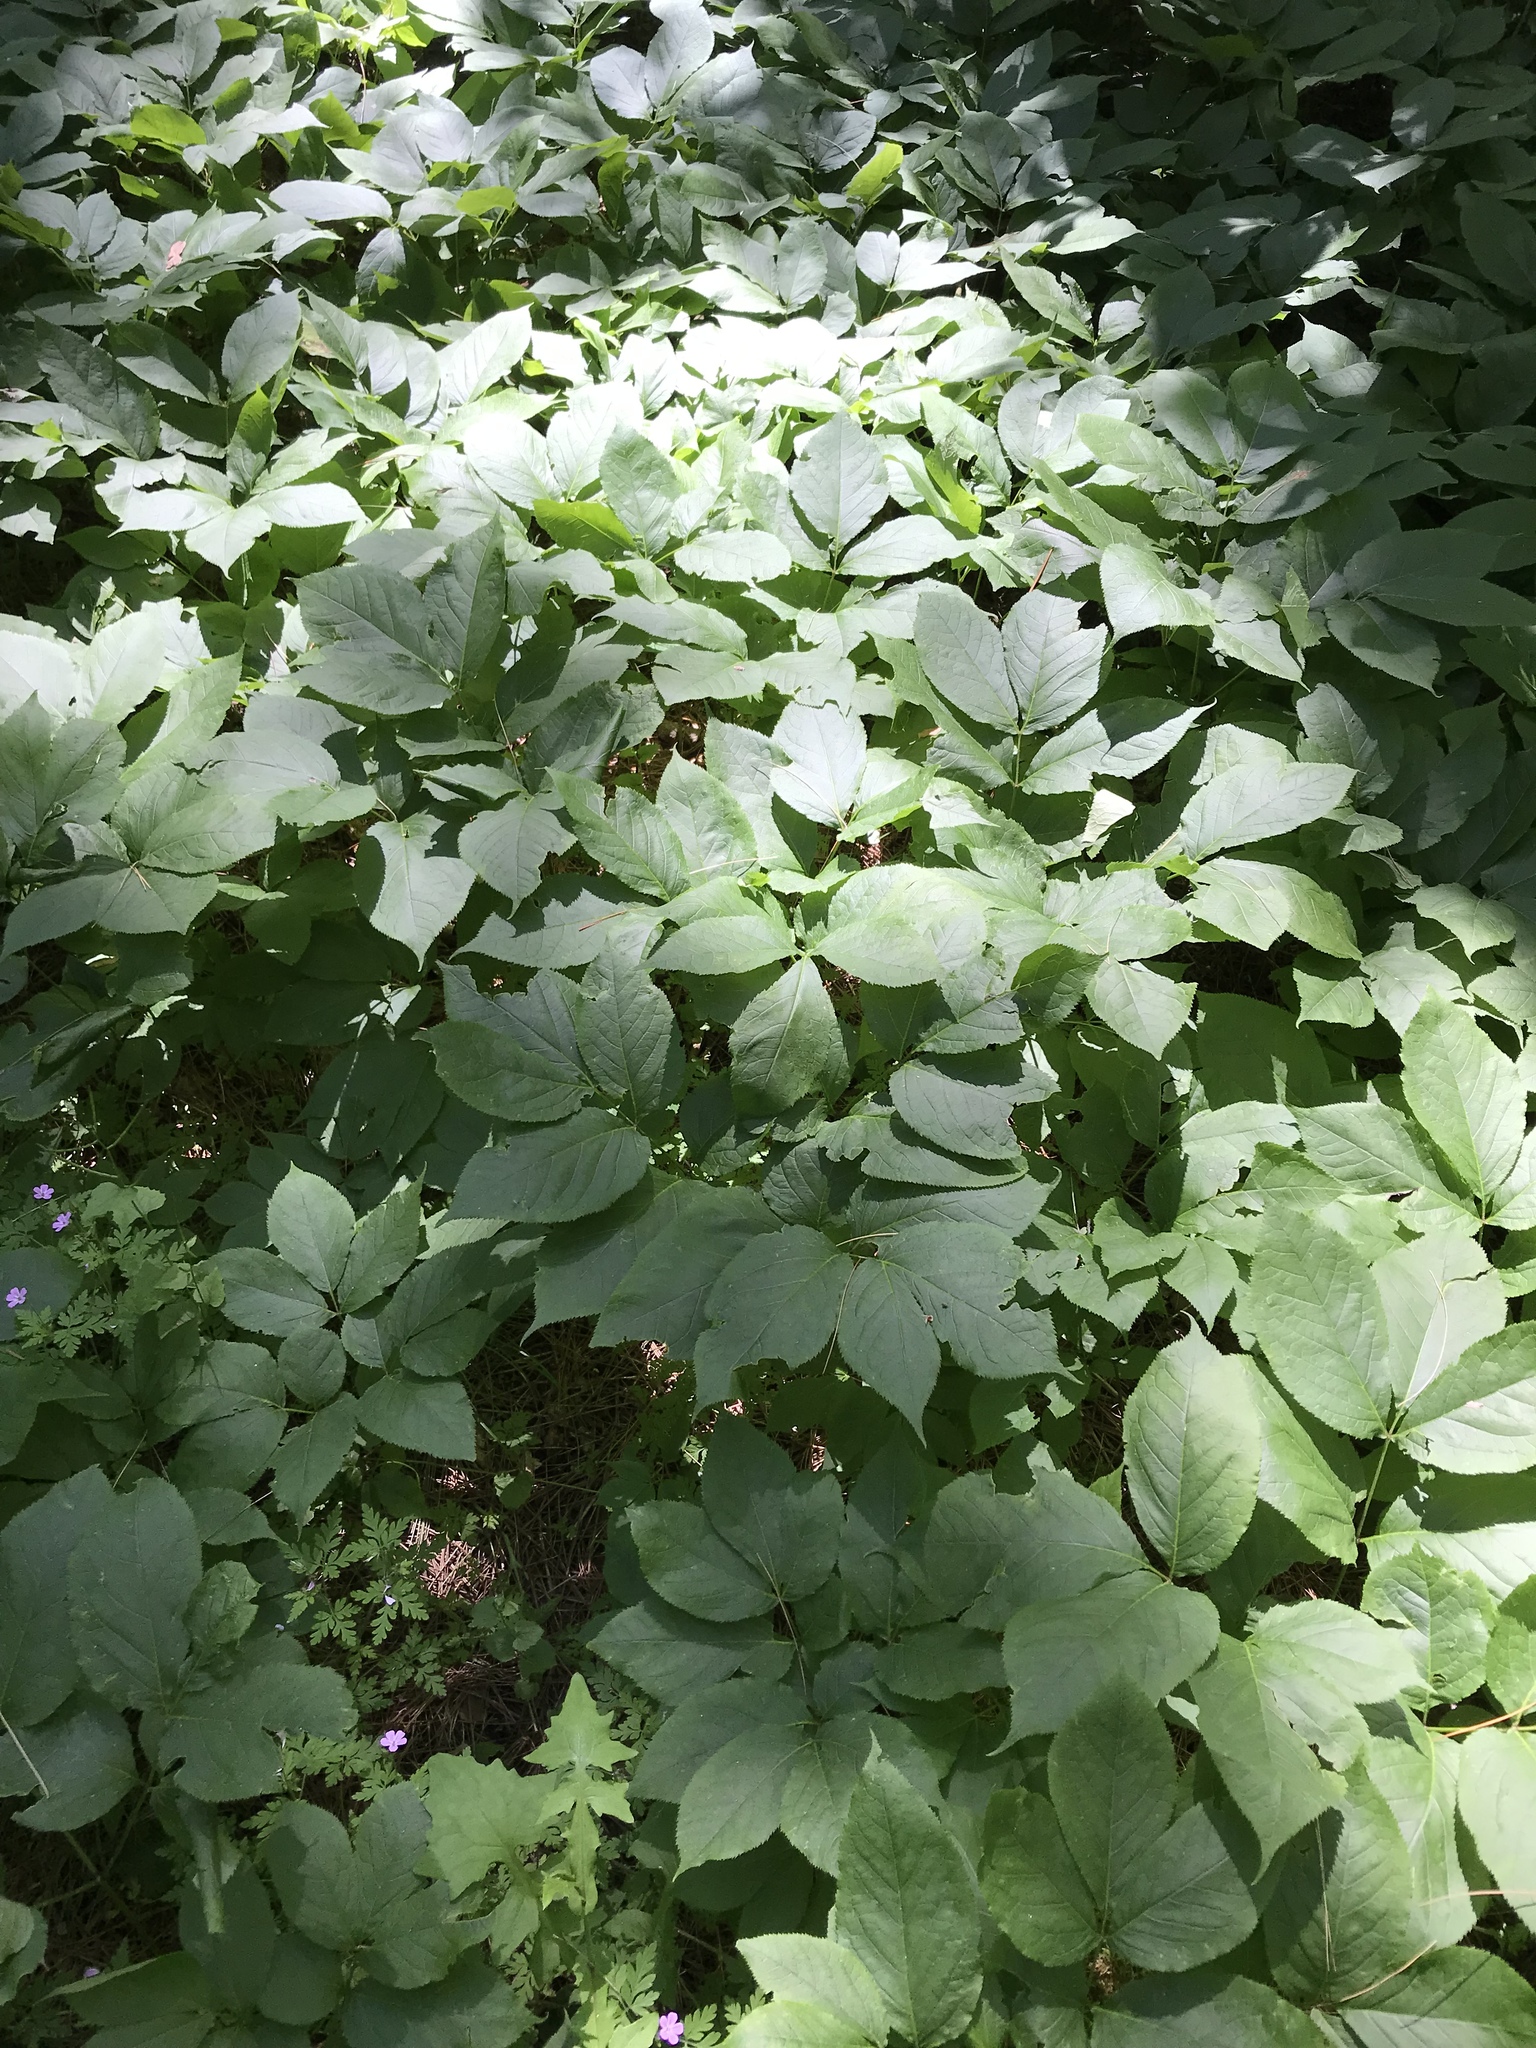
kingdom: Plantae
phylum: Tracheophyta
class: Magnoliopsida
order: Apiales
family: Araliaceae
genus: Aralia
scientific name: Aralia nudicaulis
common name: Wild sarsaparilla
